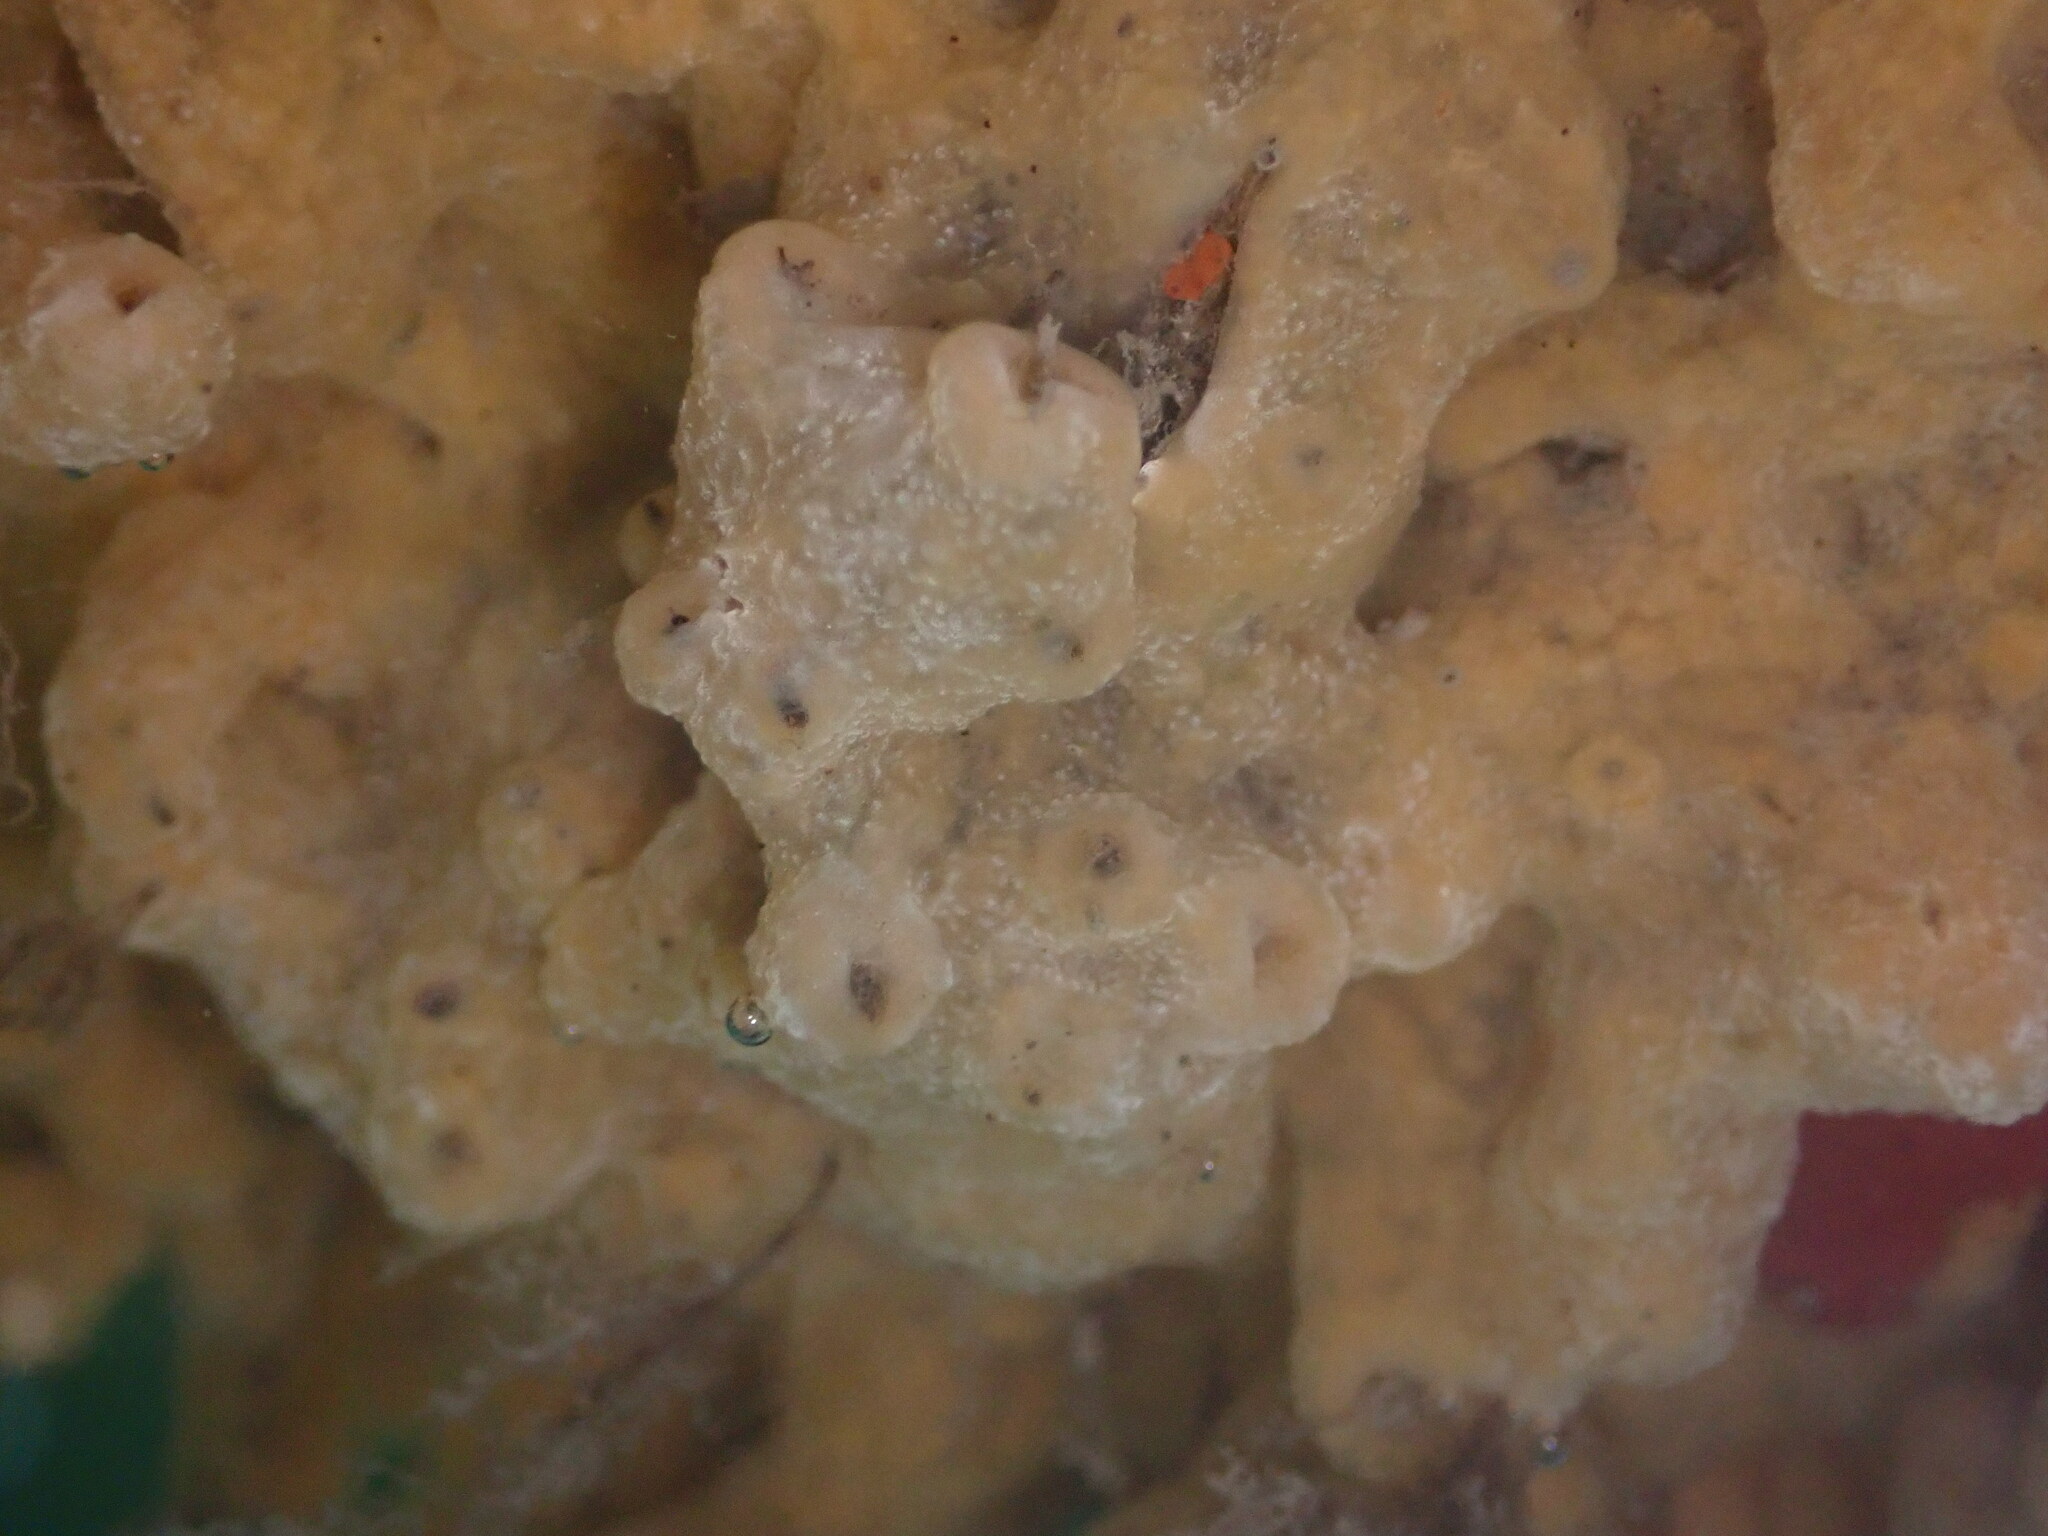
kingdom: Animalia
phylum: Chordata
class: Ascidiacea
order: Aplousobranchia
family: Didemnidae
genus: Didemnum
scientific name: Didemnum vexillum
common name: Compound sea squirt
